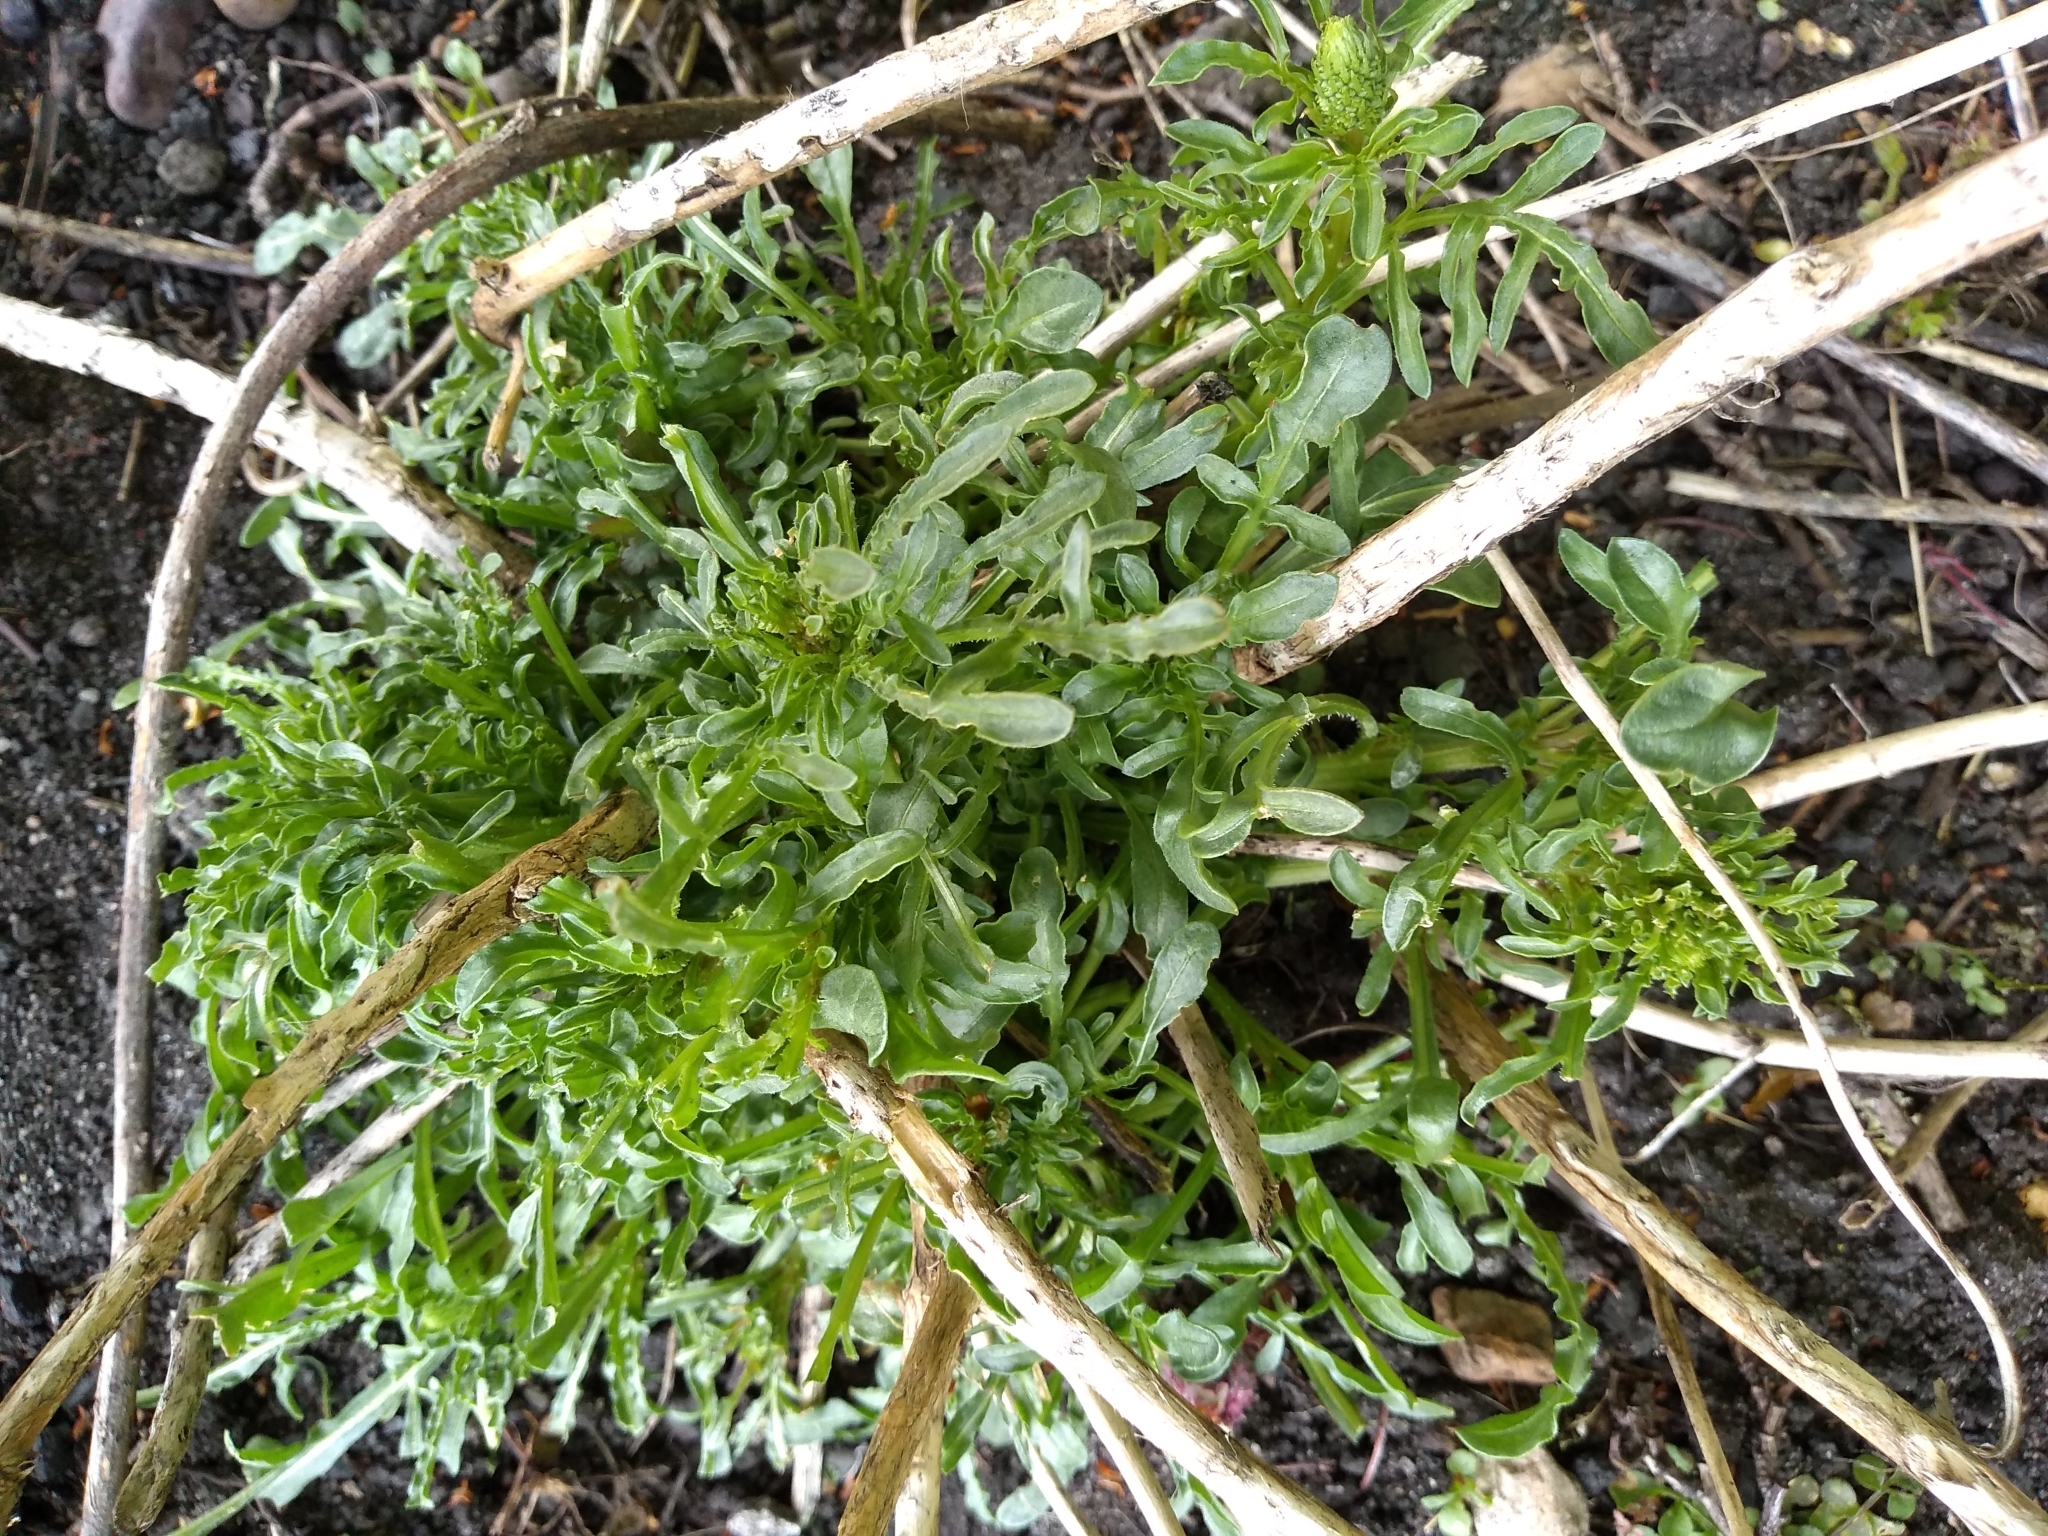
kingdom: Plantae
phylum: Tracheophyta
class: Magnoliopsida
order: Brassicales
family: Resedaceae
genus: Reseda
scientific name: Reseda lutea
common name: Wild mignonette
